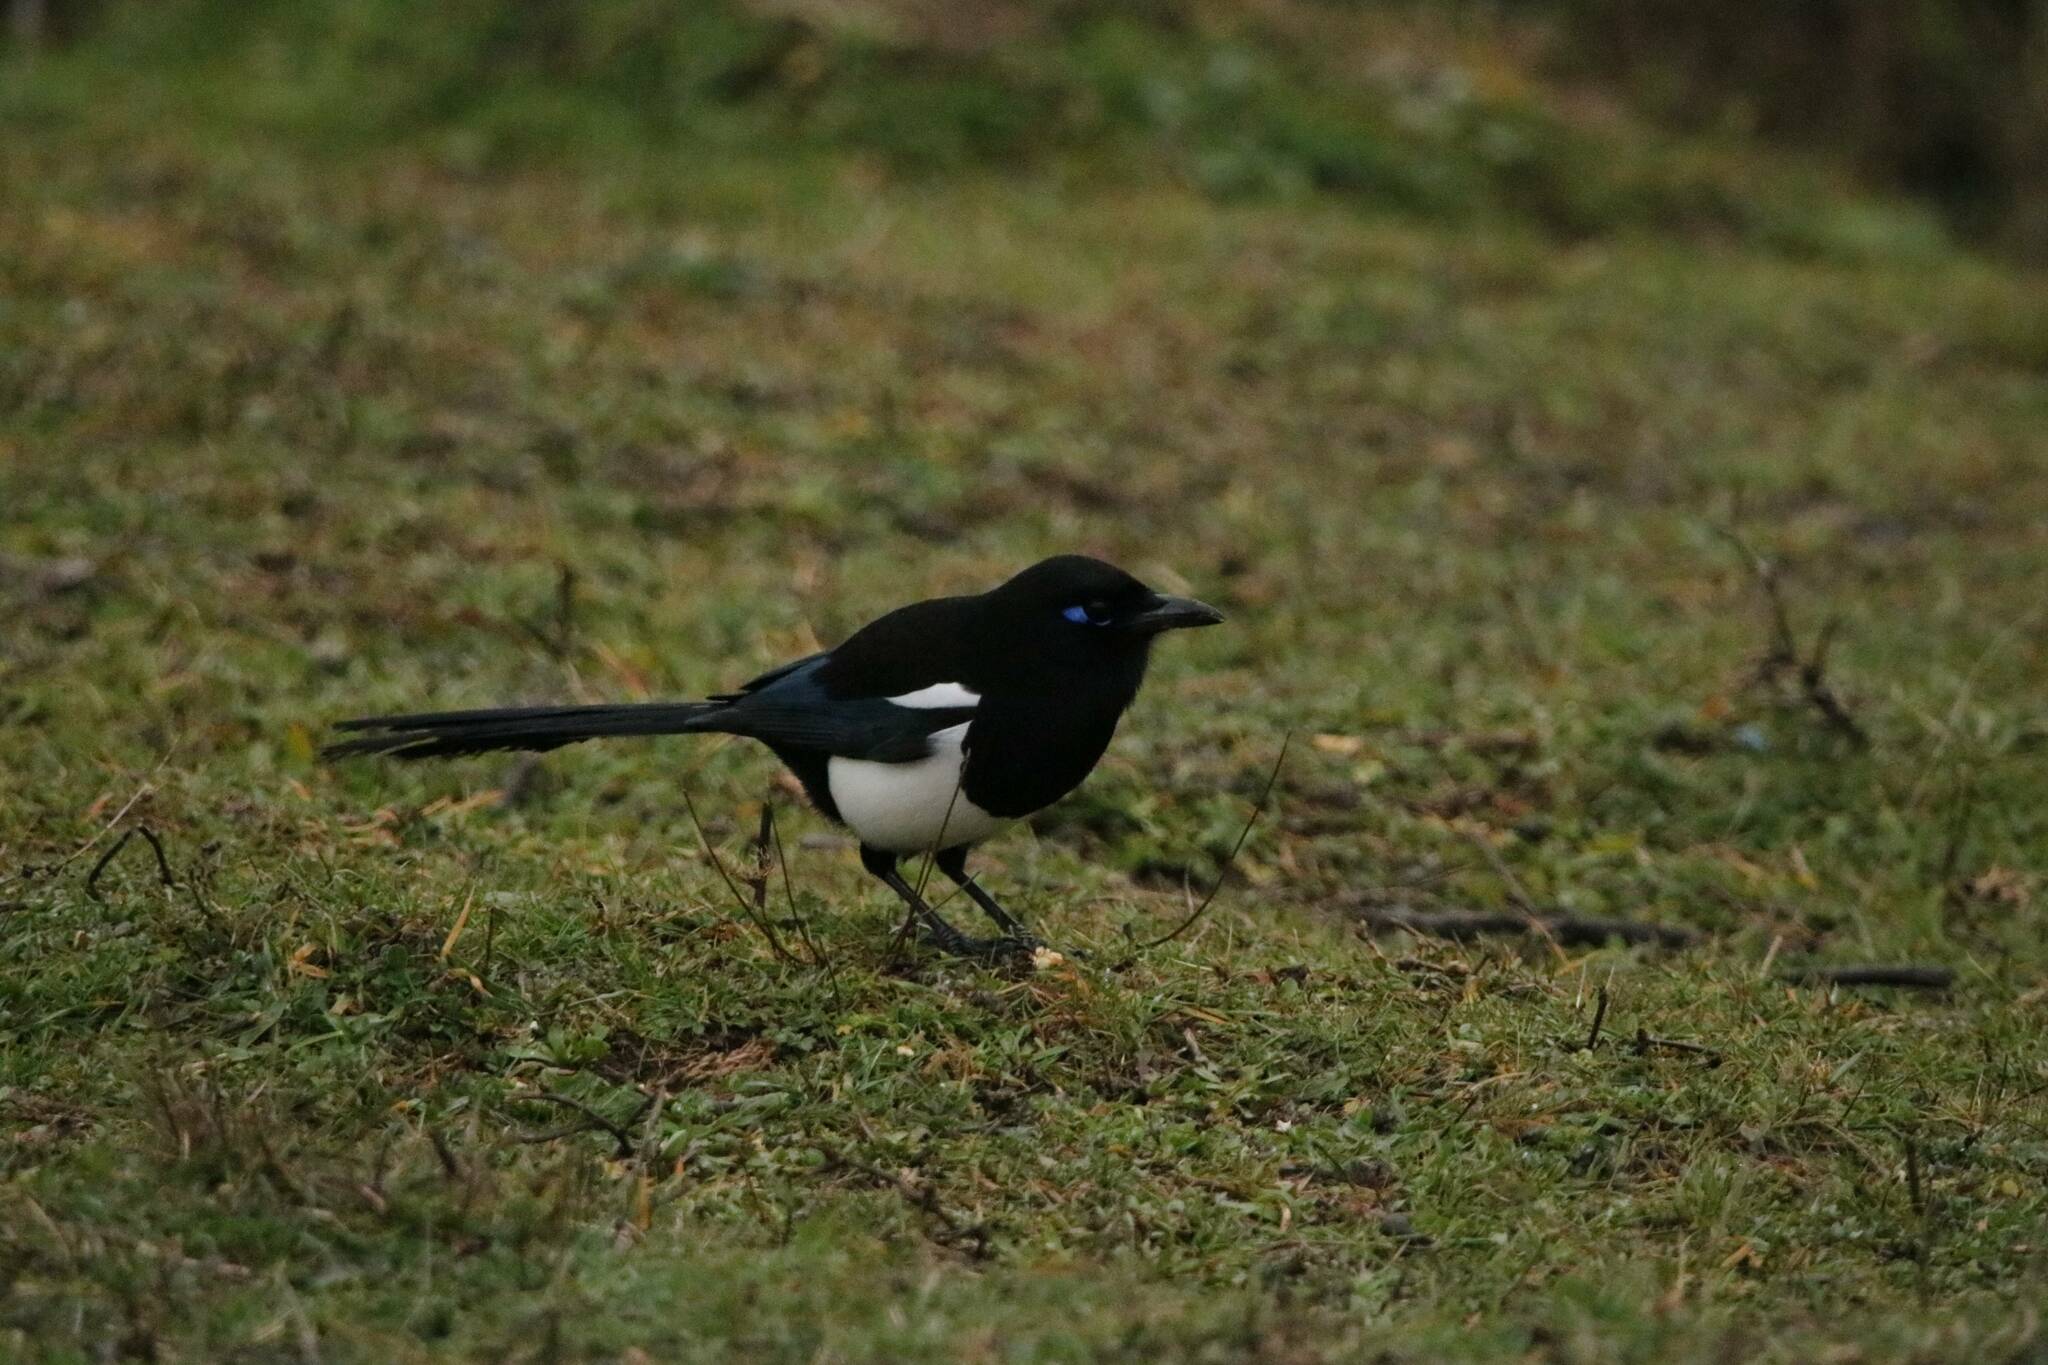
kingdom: Animalia
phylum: Chordata
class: Aves
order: Passeriformes
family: Corvidae
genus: Pica
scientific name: Pica mauritanica
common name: Maghreb magpie
